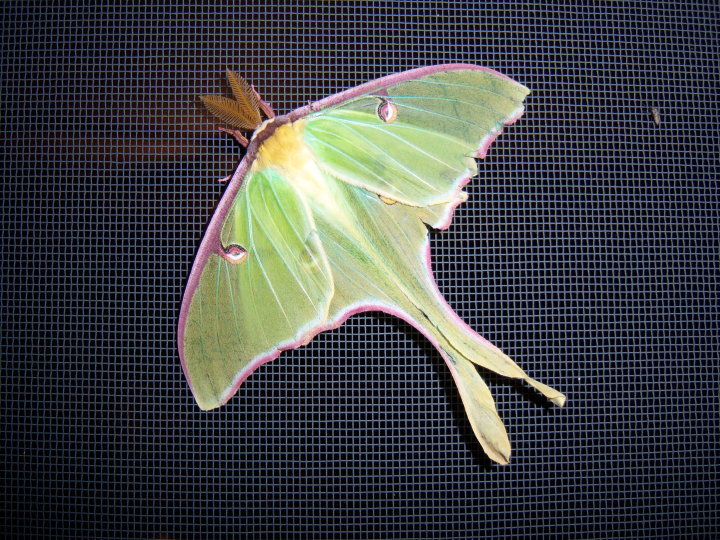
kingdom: Animalia
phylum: Arthropoda
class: Insecta
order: Lepidoptera
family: Saturniidae
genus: Actias
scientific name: Actias luna
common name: Luna moth
